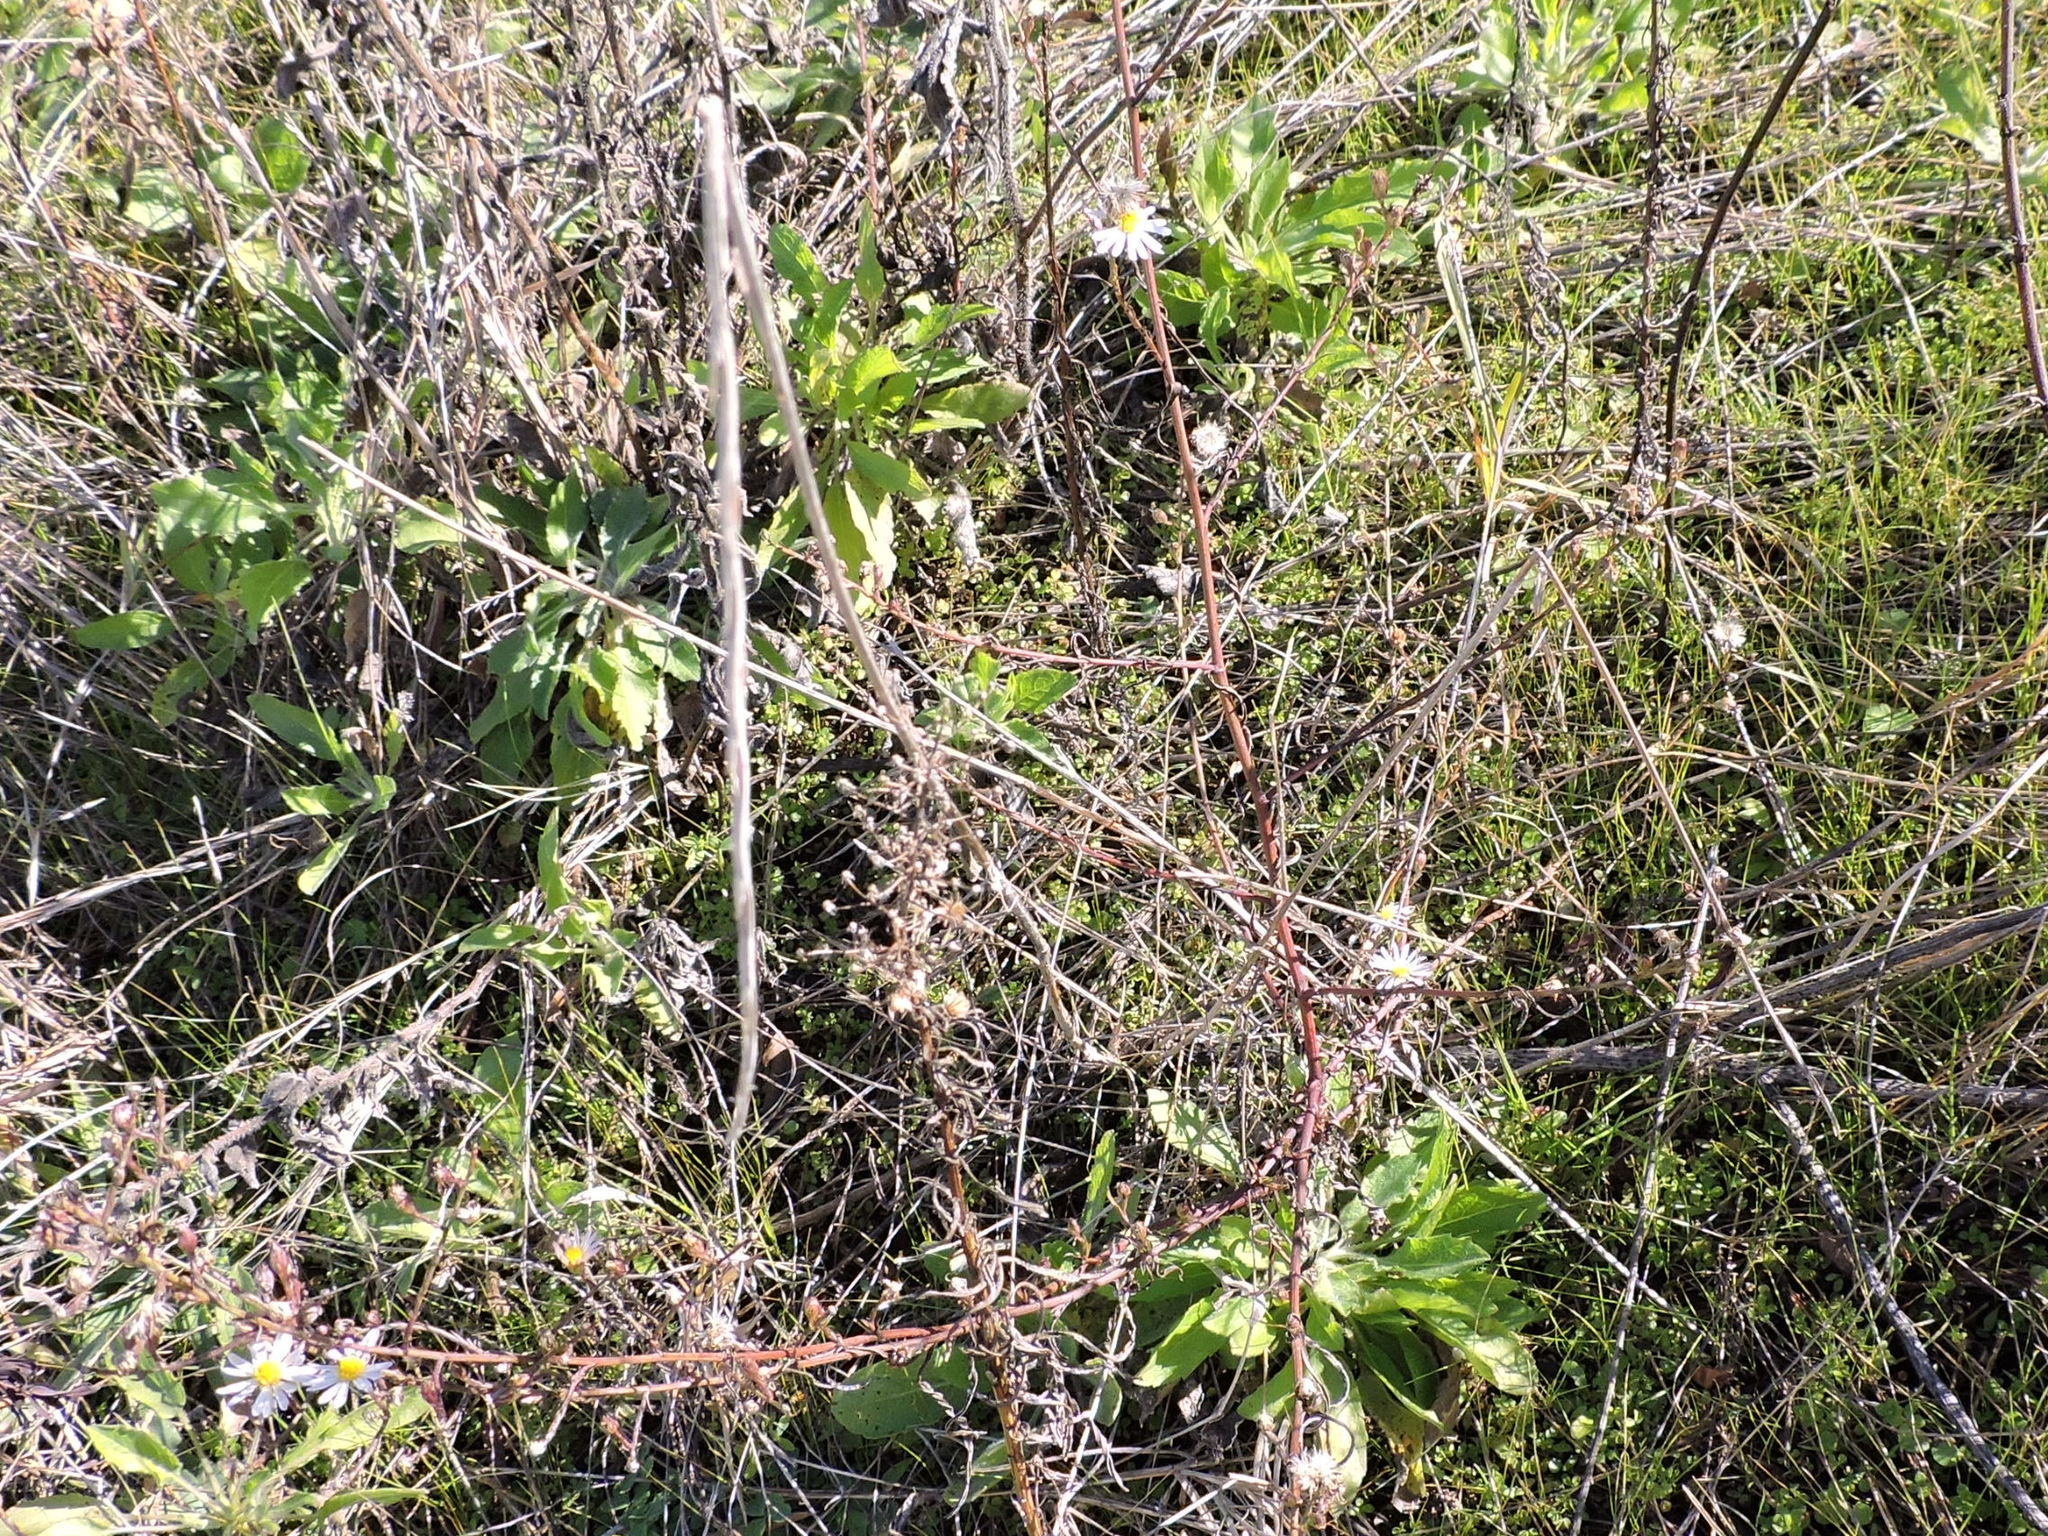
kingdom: Plantae
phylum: Tracheophyta
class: Magnoliopsida
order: Asterales
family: Asteraceae
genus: Symphyotrichum
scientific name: Symphyotrichum divaricatum
